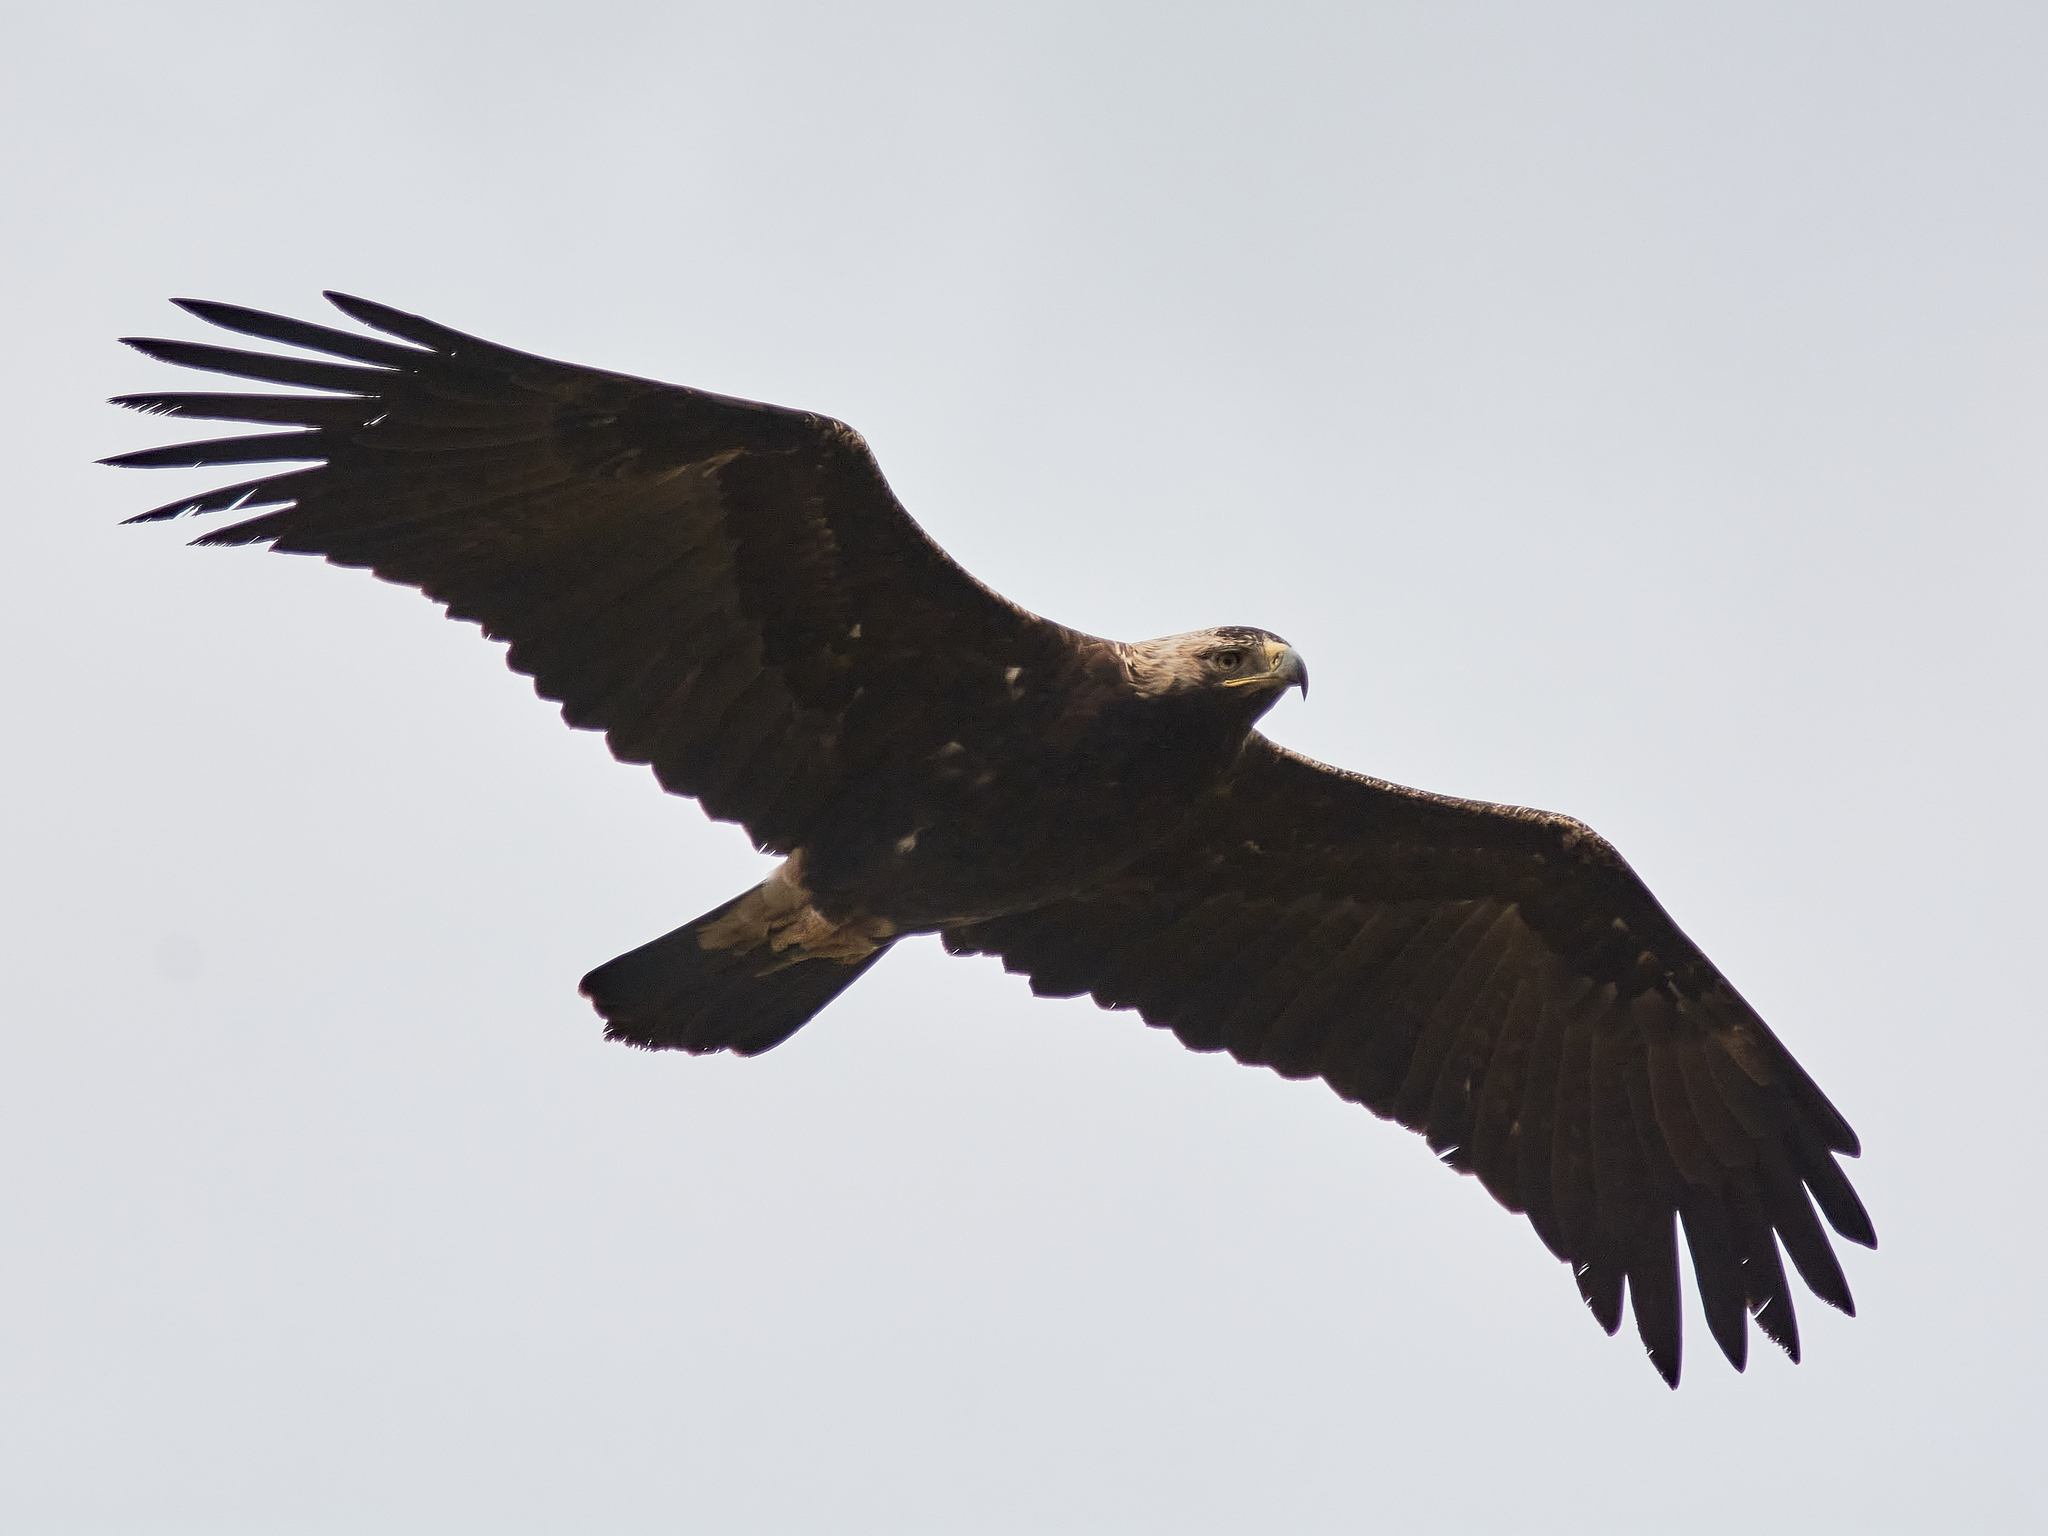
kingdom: Animalia
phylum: Chordata
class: Aves
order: Accipitriformes
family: Accipitridae
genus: Aquila
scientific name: Aquila heliaca
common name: Eastern imperial eagle
